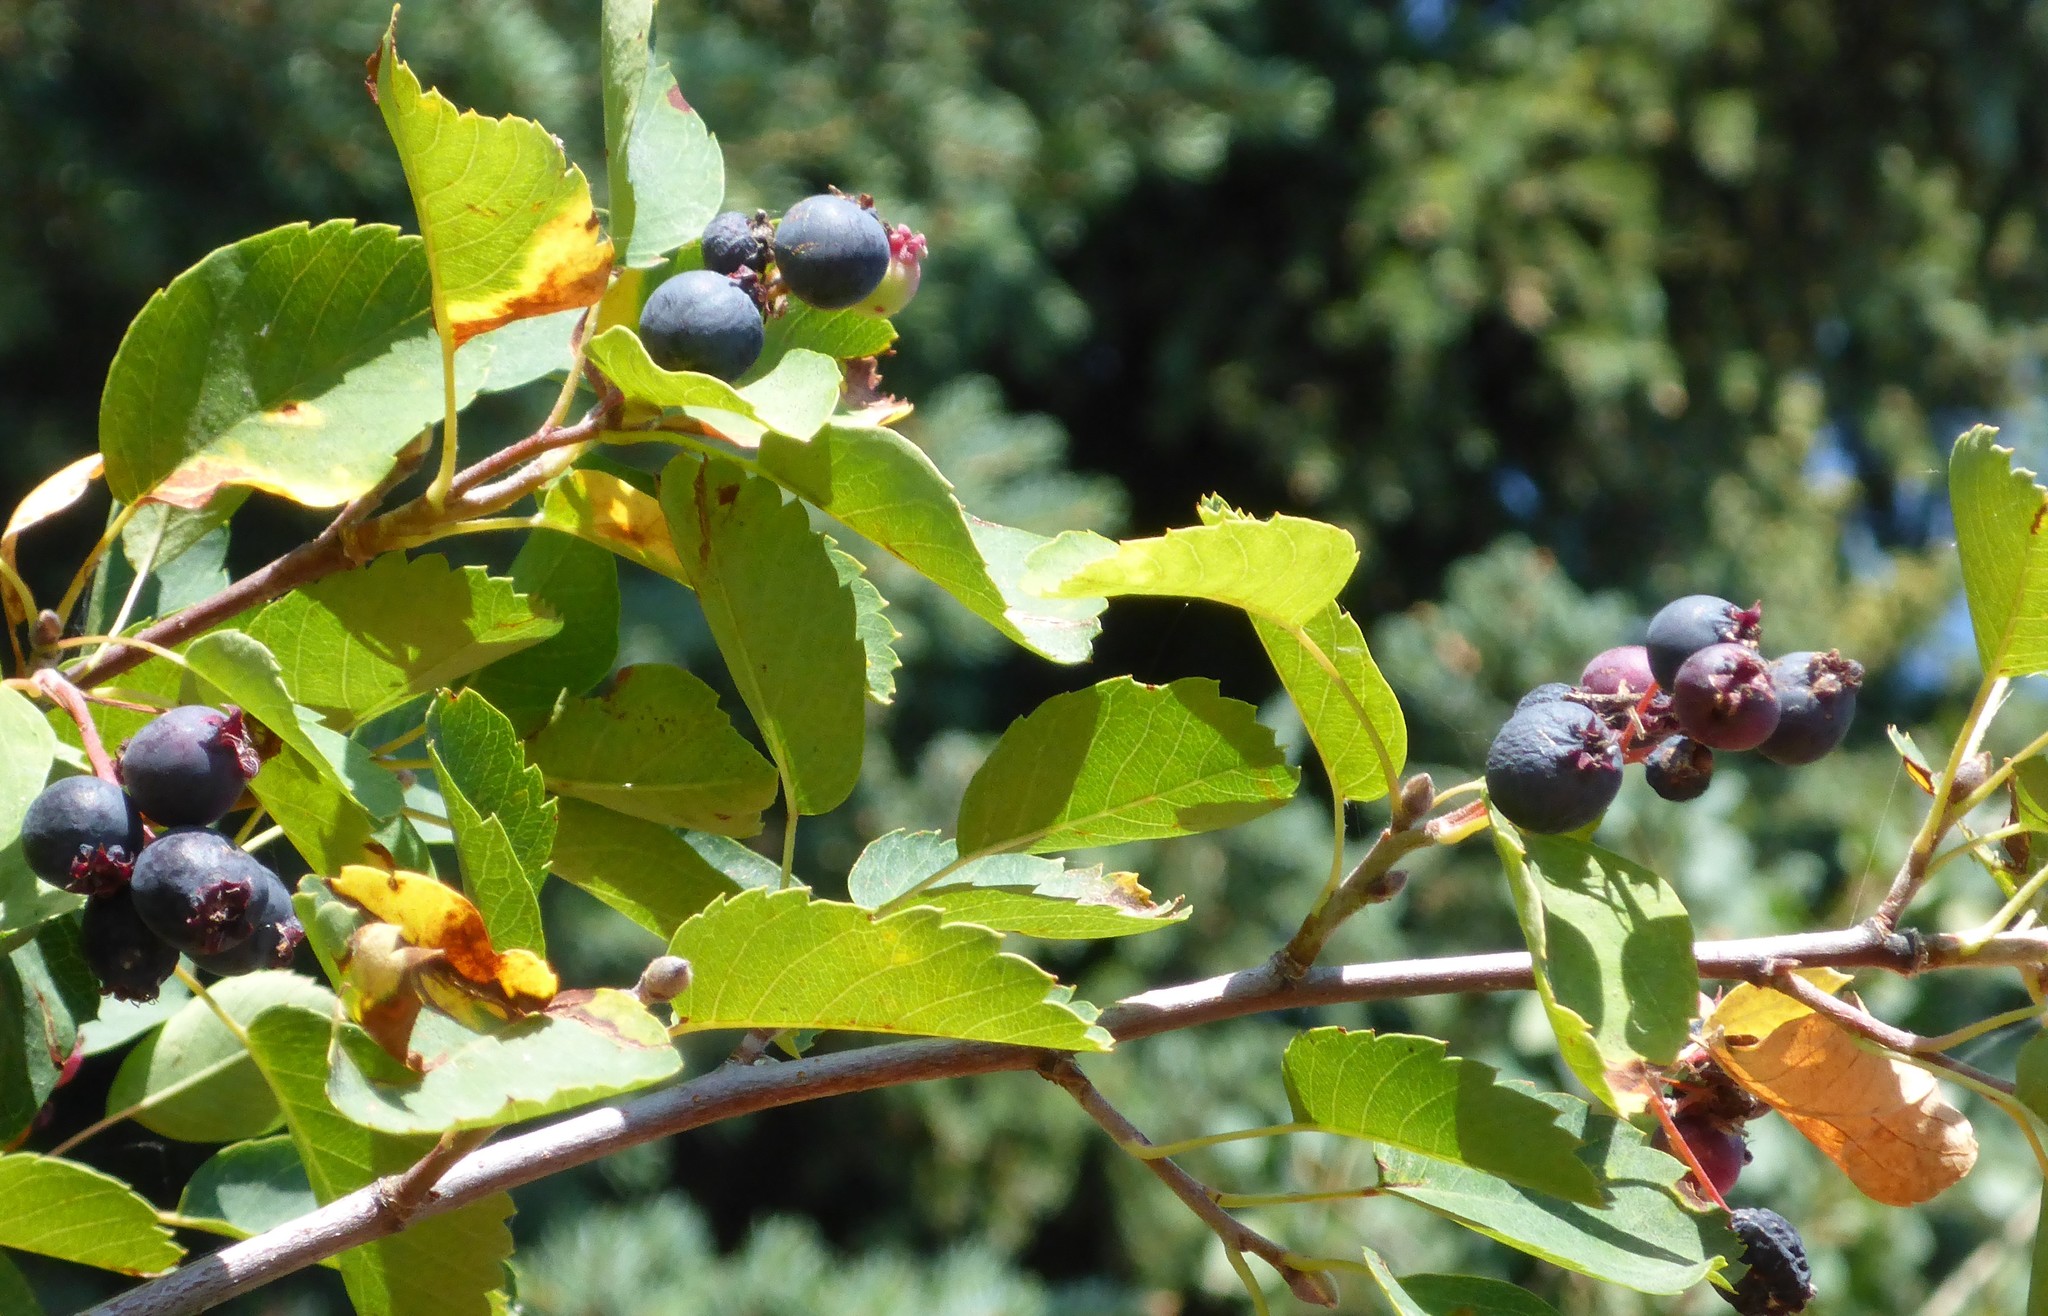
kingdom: Plantae
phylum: Tracheophyta
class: Magnoliopsida
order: Rosales
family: Rosaceae
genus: Amelanchier
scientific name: Amelanchier alnifolia
